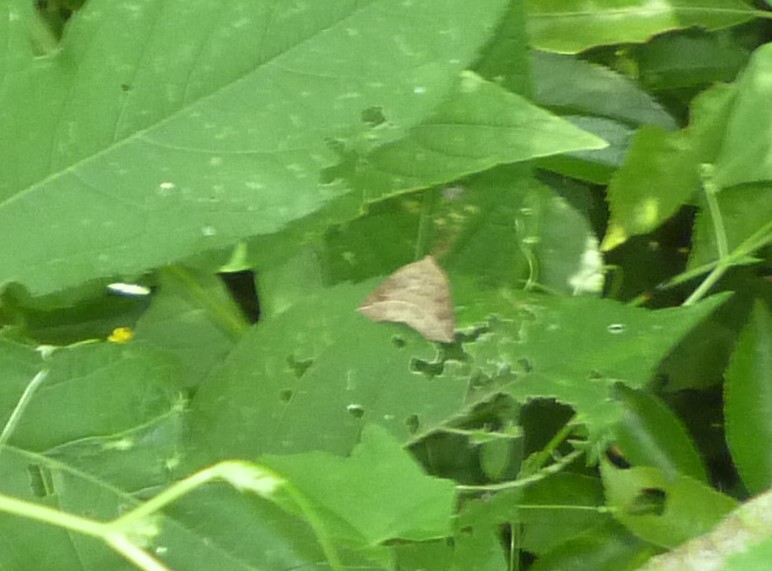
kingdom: Animalia
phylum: Arthropoda
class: Insecta
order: Lepidoptera
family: Erebidae
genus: Isogona
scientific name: Isogona tenuis
